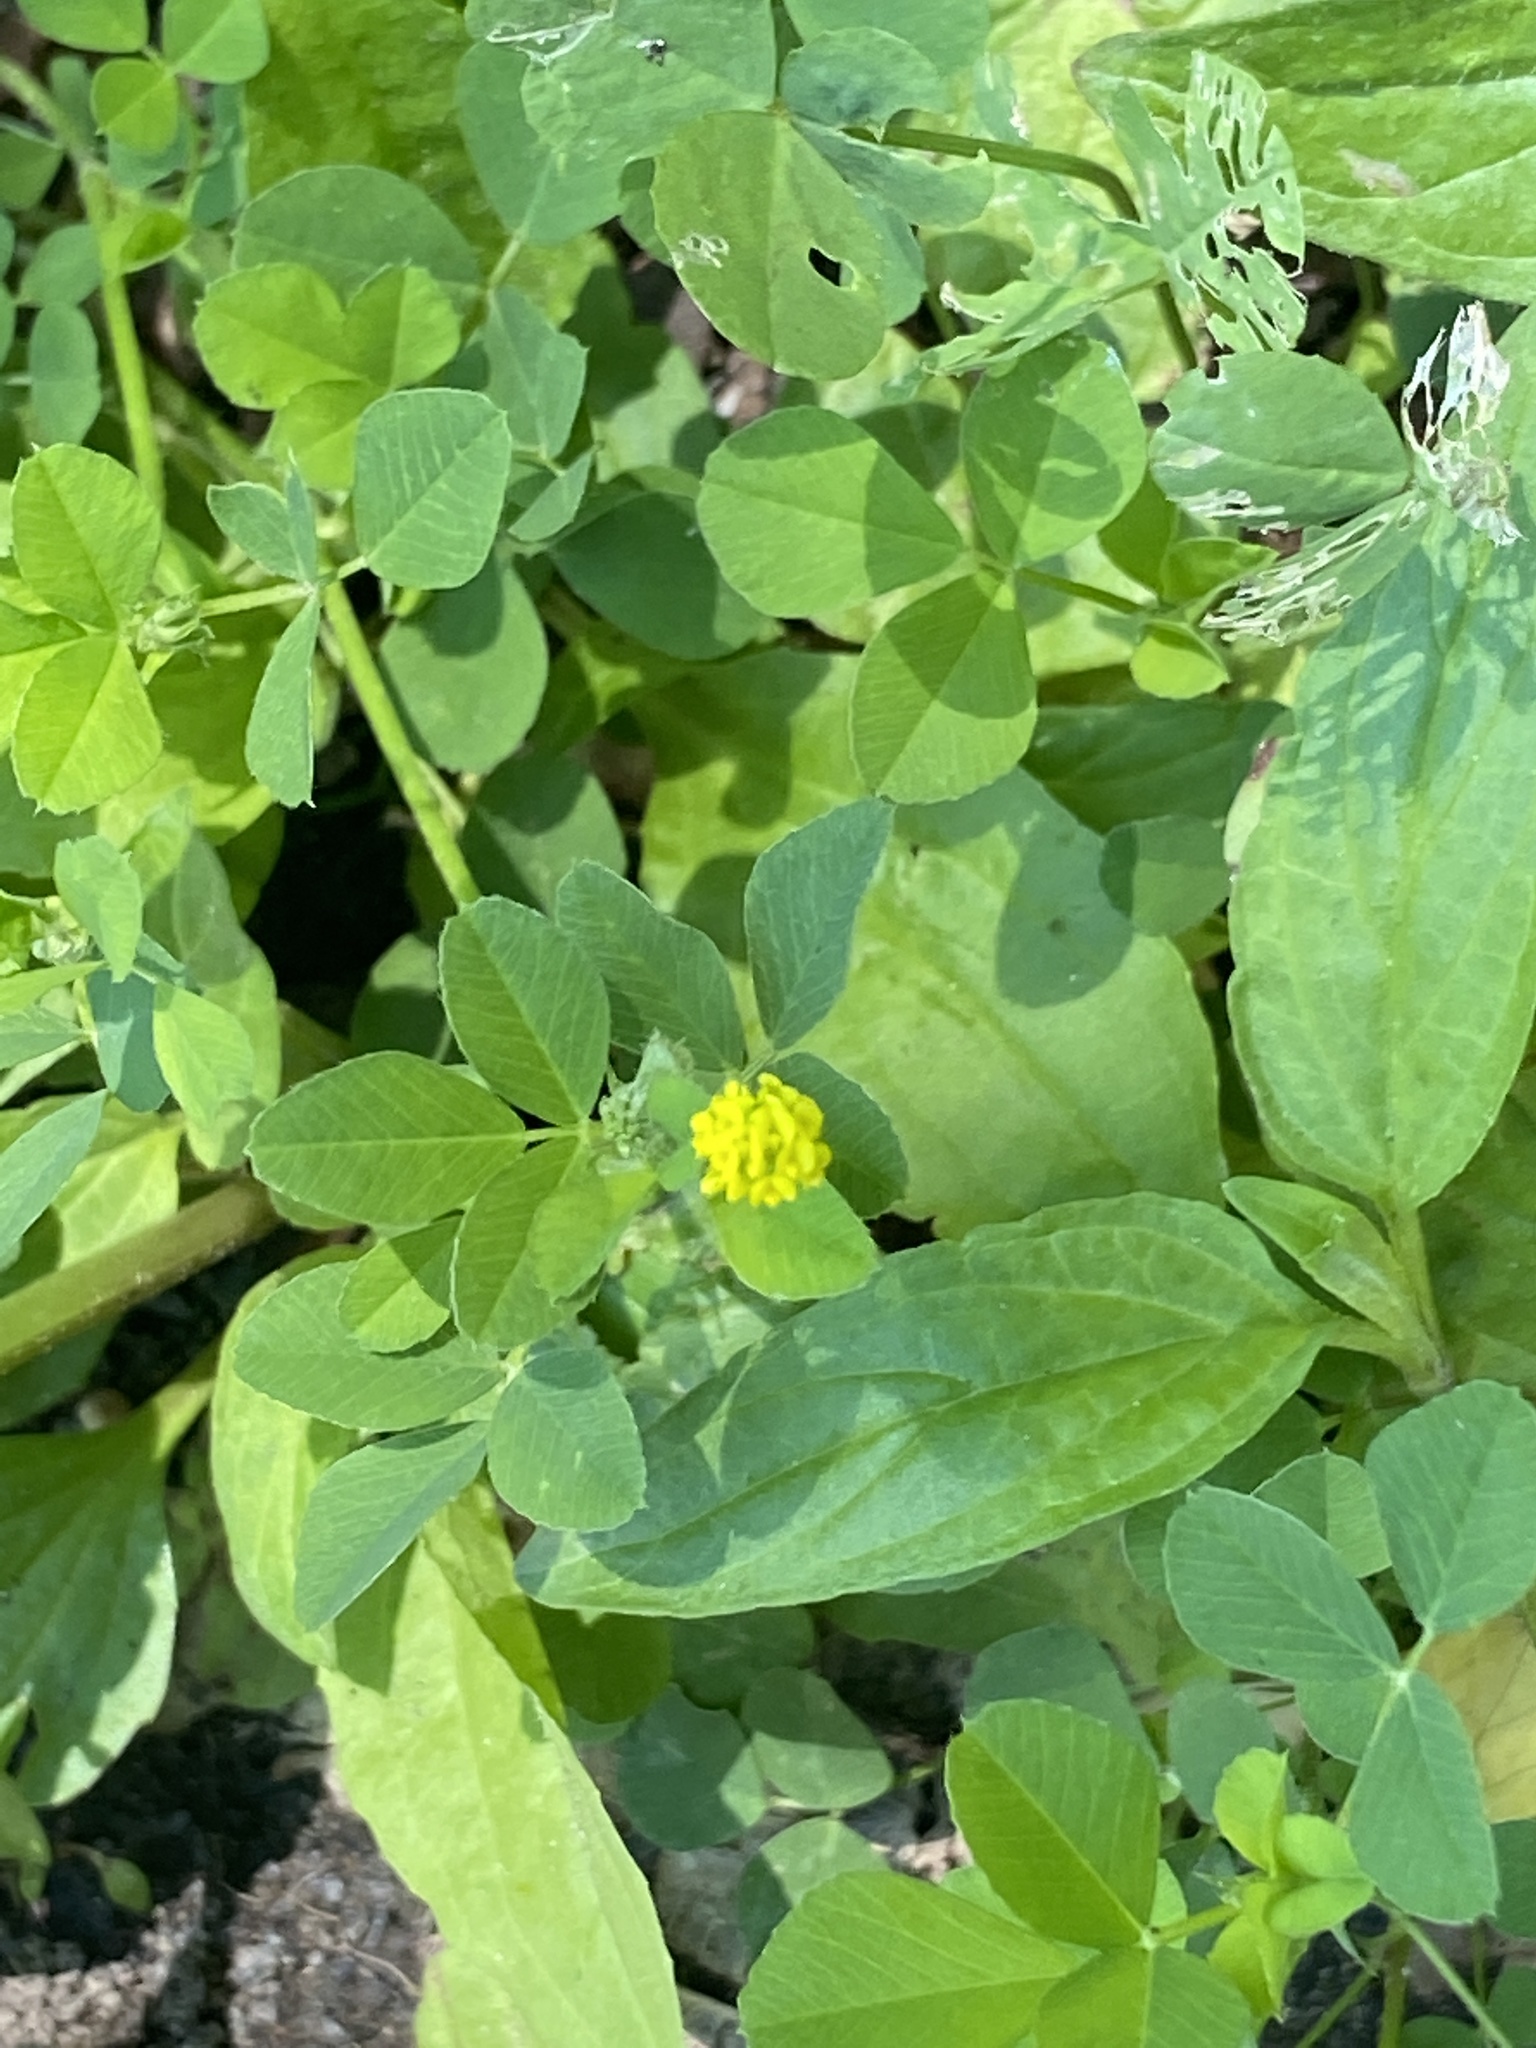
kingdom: Plantae
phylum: Tracheophyta
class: Magnoliopsida
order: Fabales
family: Fabaceae
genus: Medicago
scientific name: Medicago lupulina
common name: Black medick
